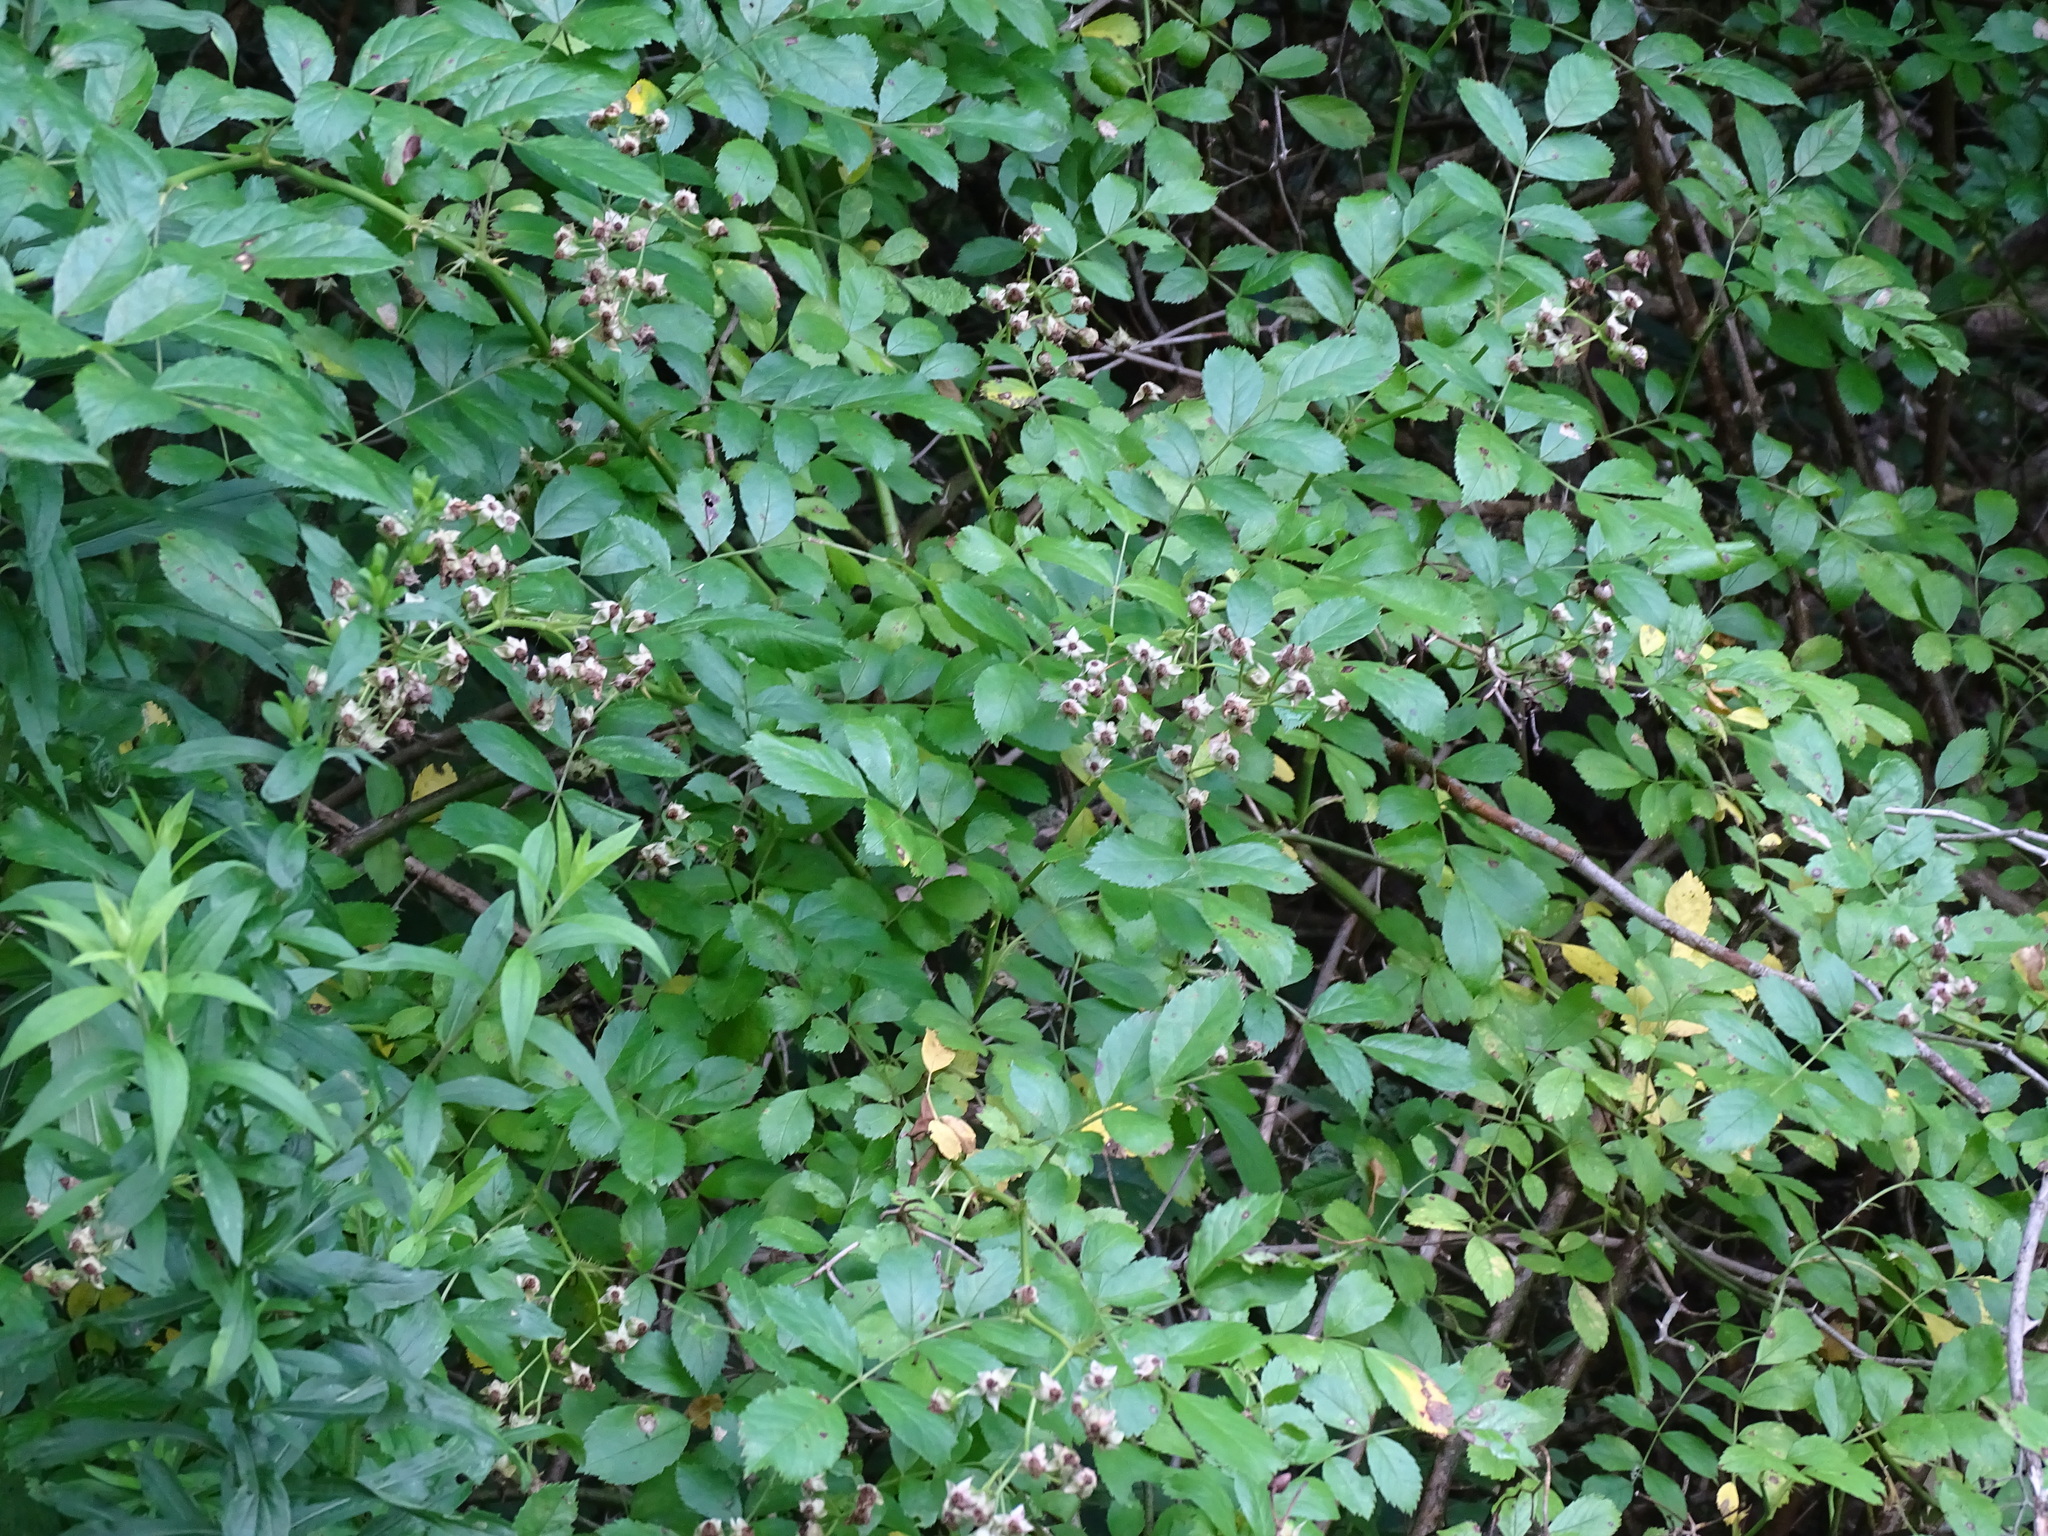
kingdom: Plantae
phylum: Tracheophyta
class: Magnoliopsida
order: Rosales
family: Rosaceae
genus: Rosa
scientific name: Rosa multiflora
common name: Multiflora rose
